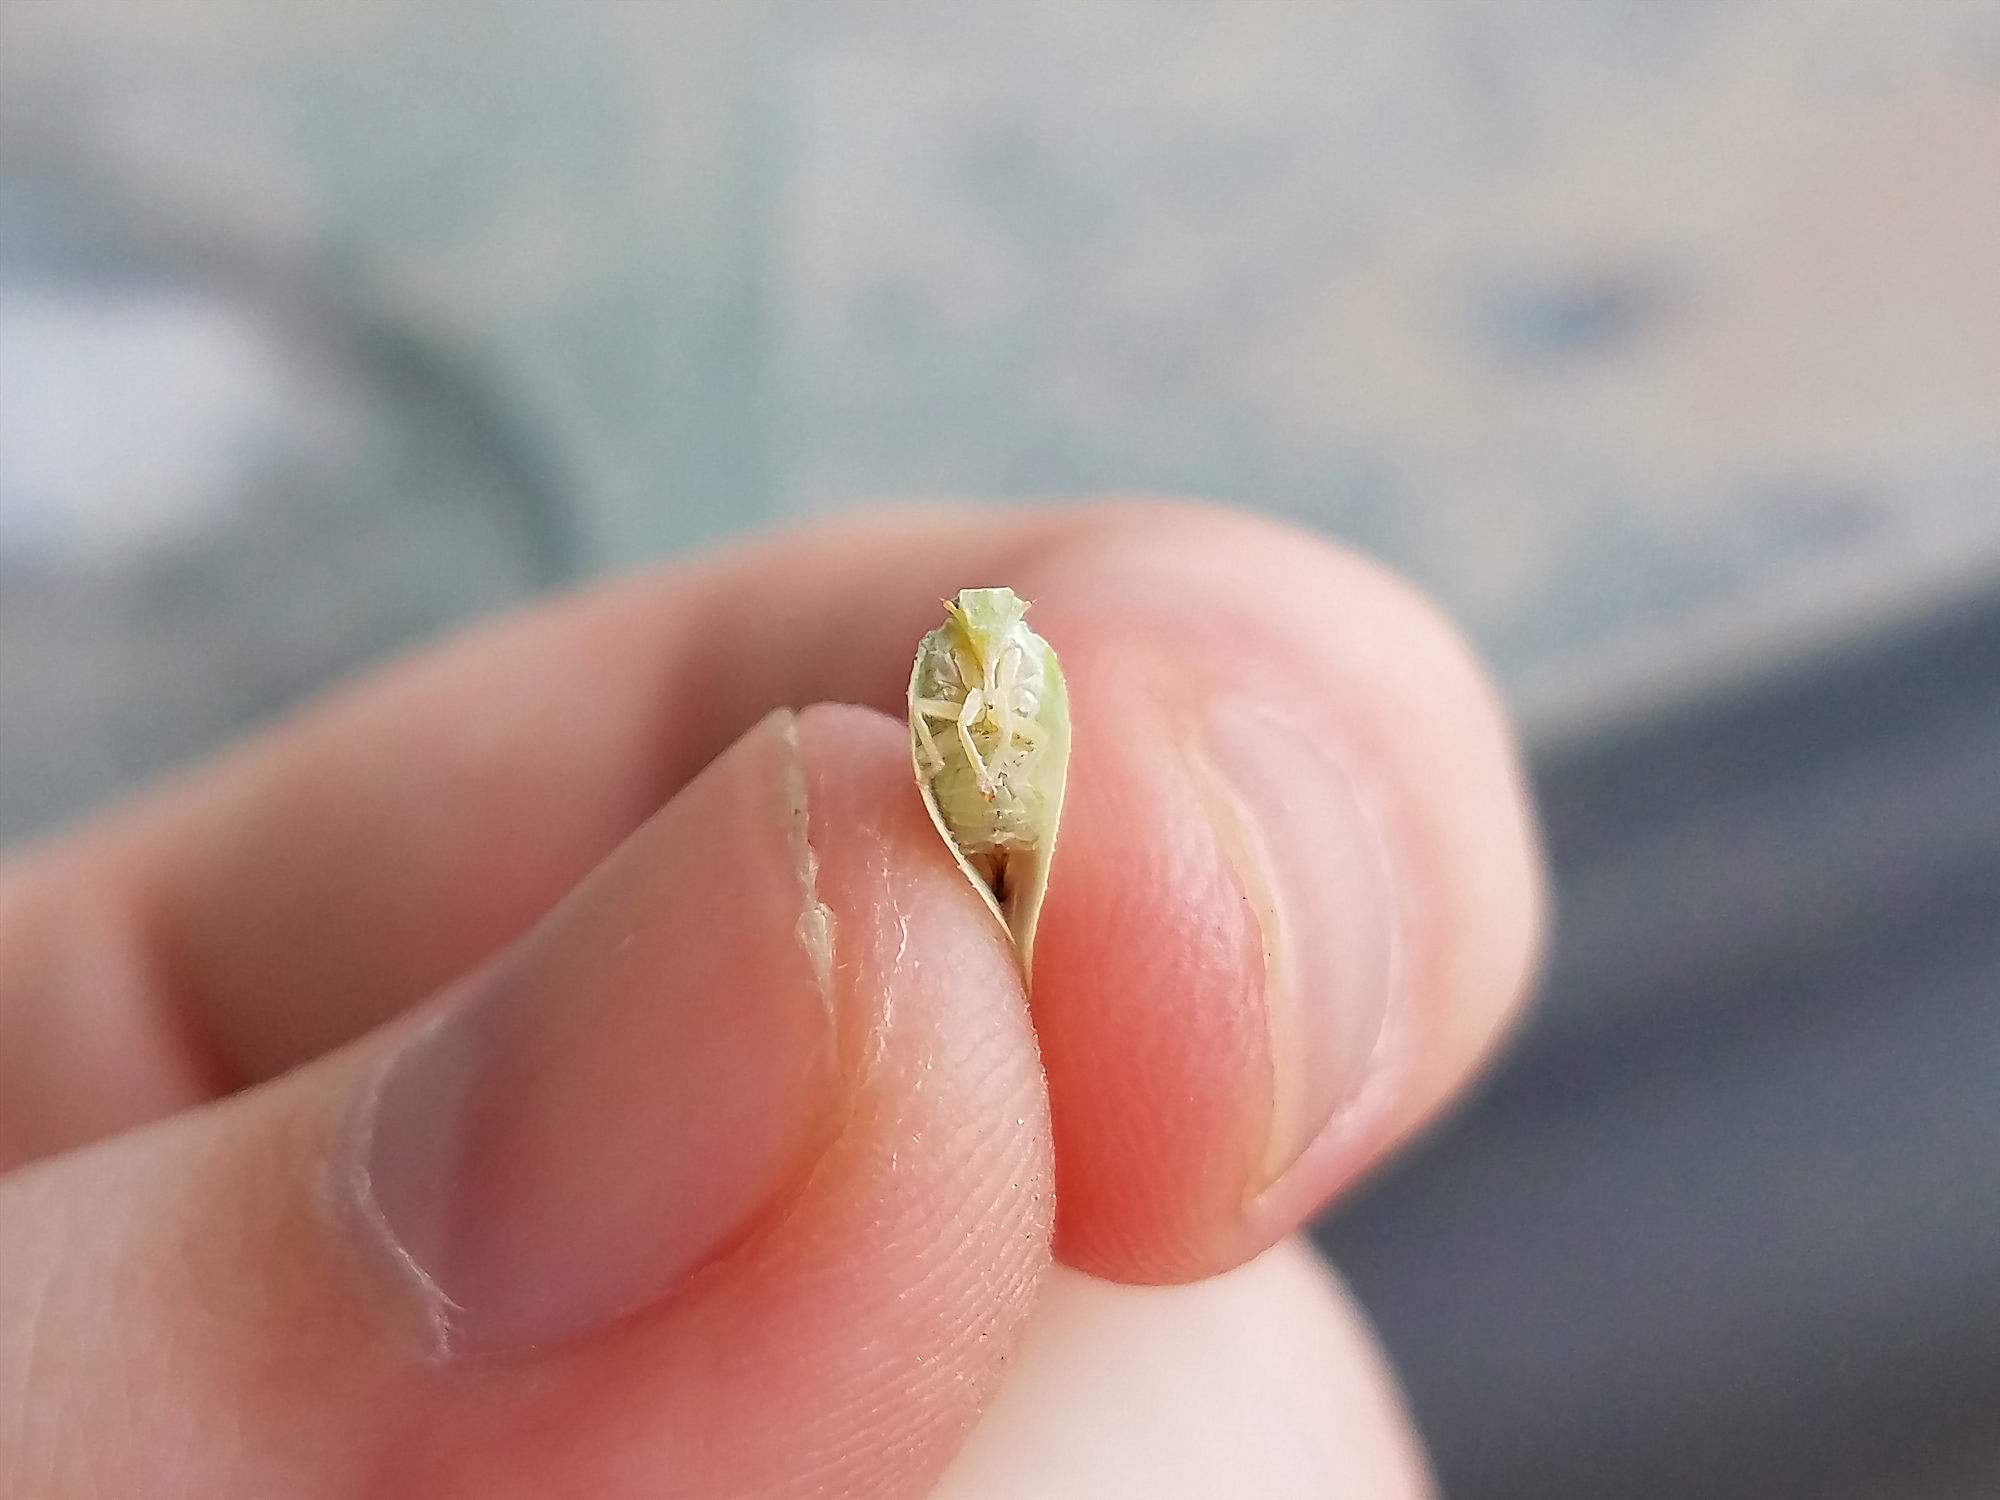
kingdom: Animalia
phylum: Arthropoda
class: Insecta
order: Hemiptera
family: Flatidae
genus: Ormenoides
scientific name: Ormenoides venusta
